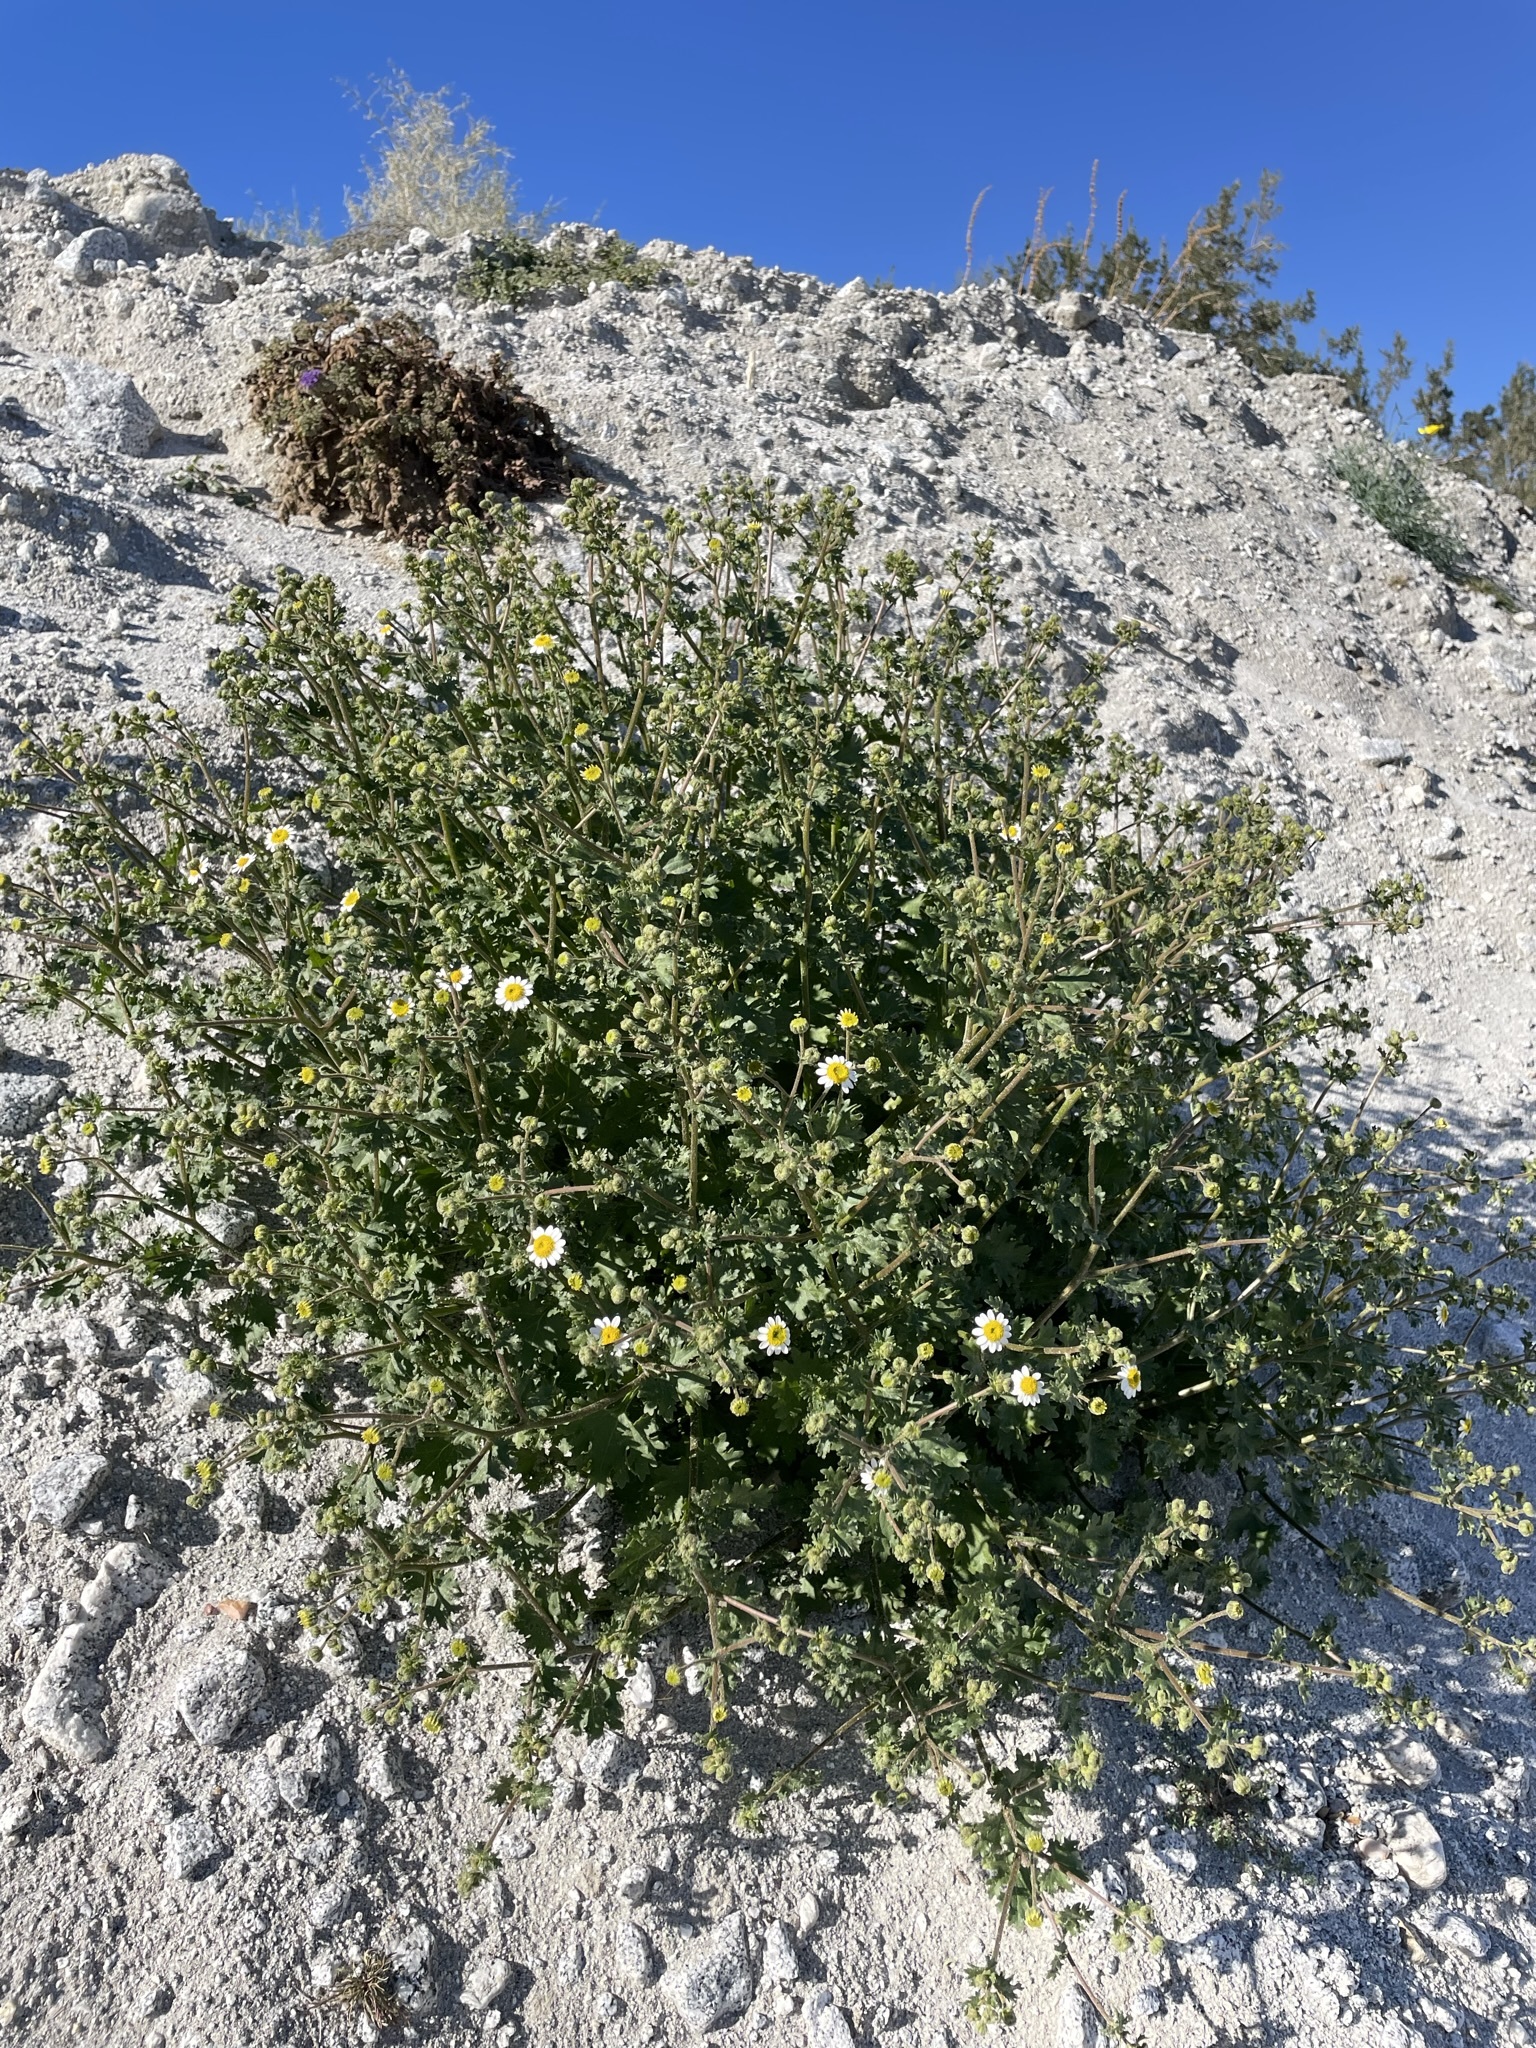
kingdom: Plantae
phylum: Tracheophyta
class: Magnoliopsida
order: Asterales
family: Asteraceae
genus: Laphamia
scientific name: Laphamia emoryi
